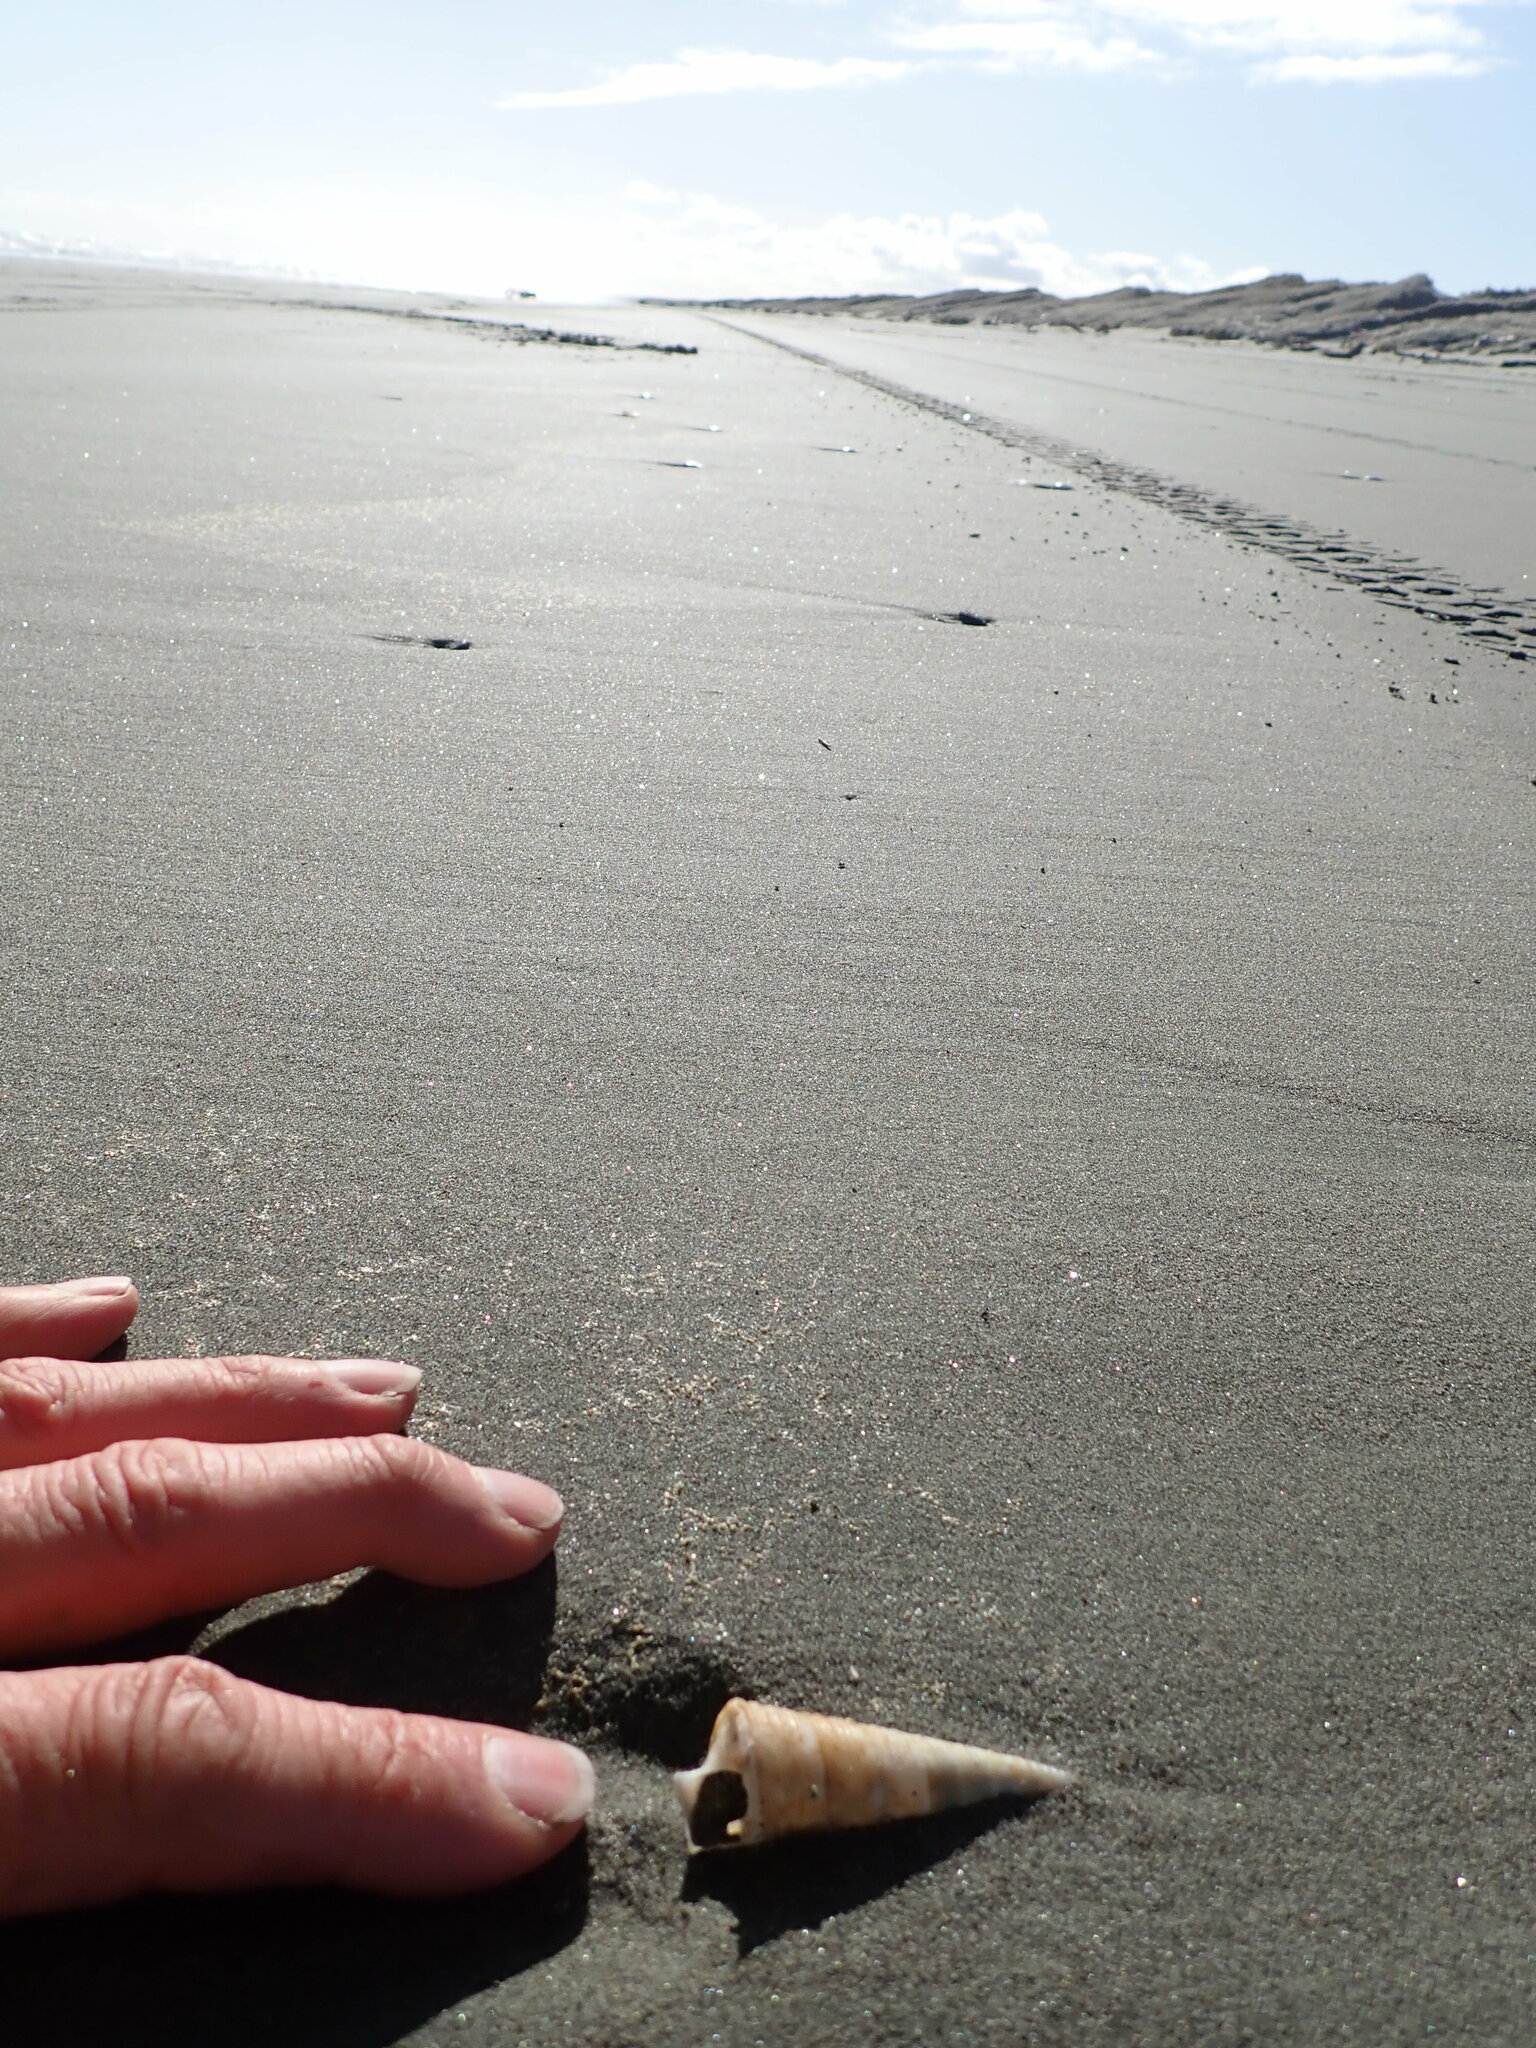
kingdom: Animalia
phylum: Mollusca
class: Gastropoda
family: Turritellidae
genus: Maoricolpus
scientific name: Maoricolpus roseus
